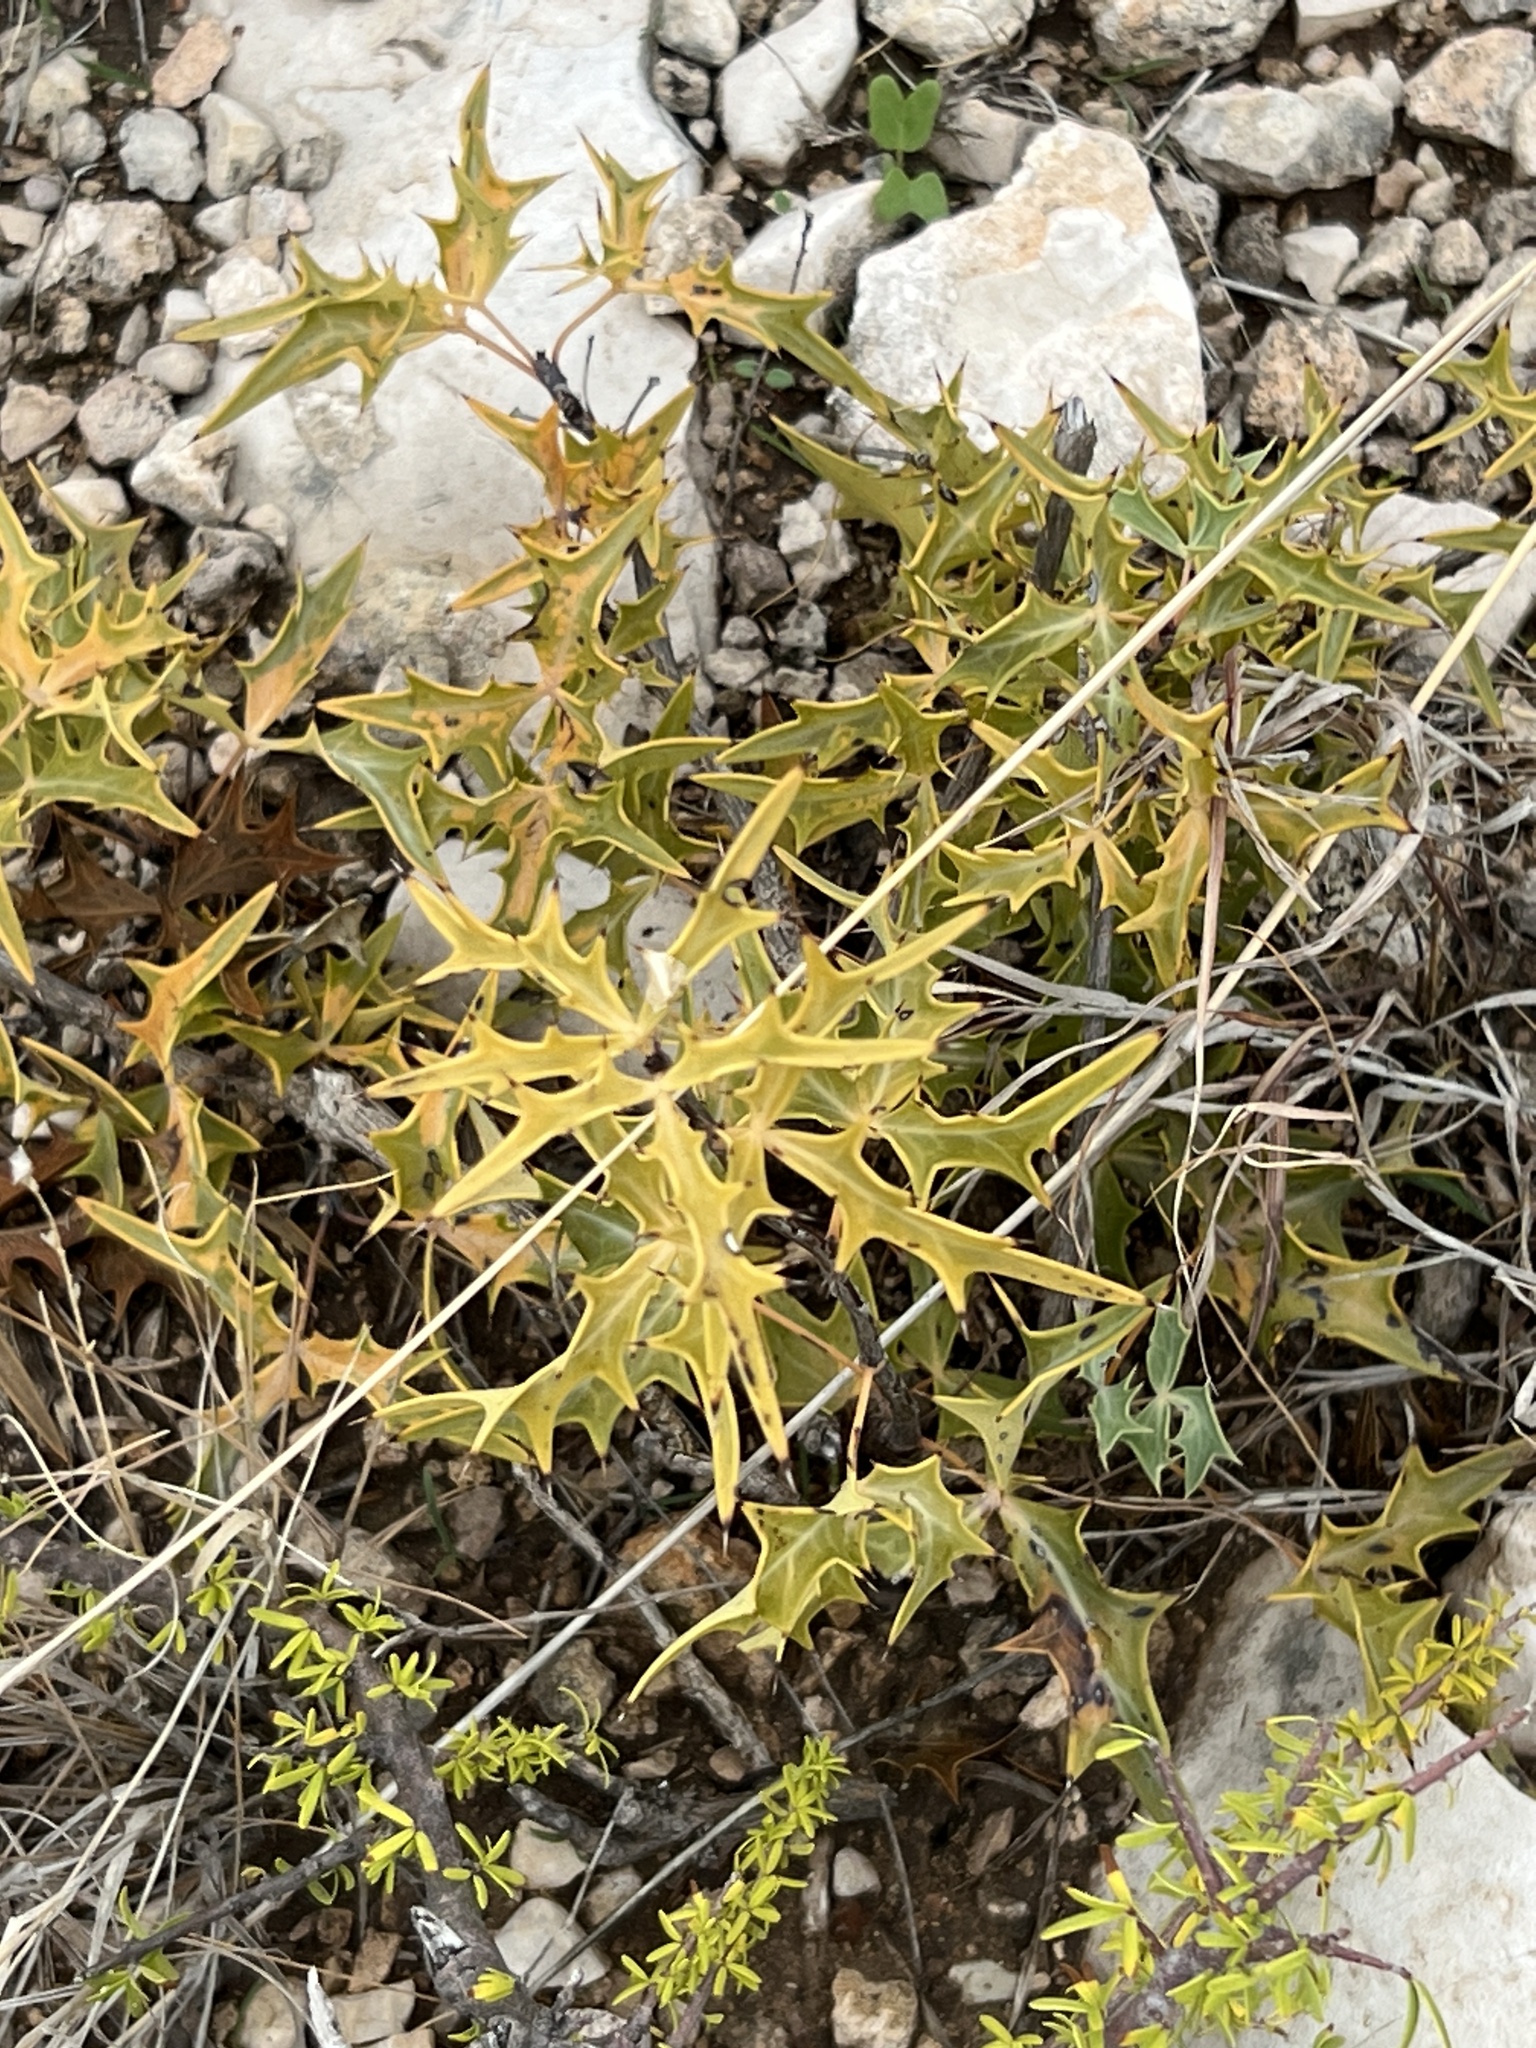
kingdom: Plantae
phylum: Tracheophyta
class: Magnoliopsida
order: Ranunculales
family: Berberidaceae
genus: Alloberberis
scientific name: Alloberberis trifoliolata
